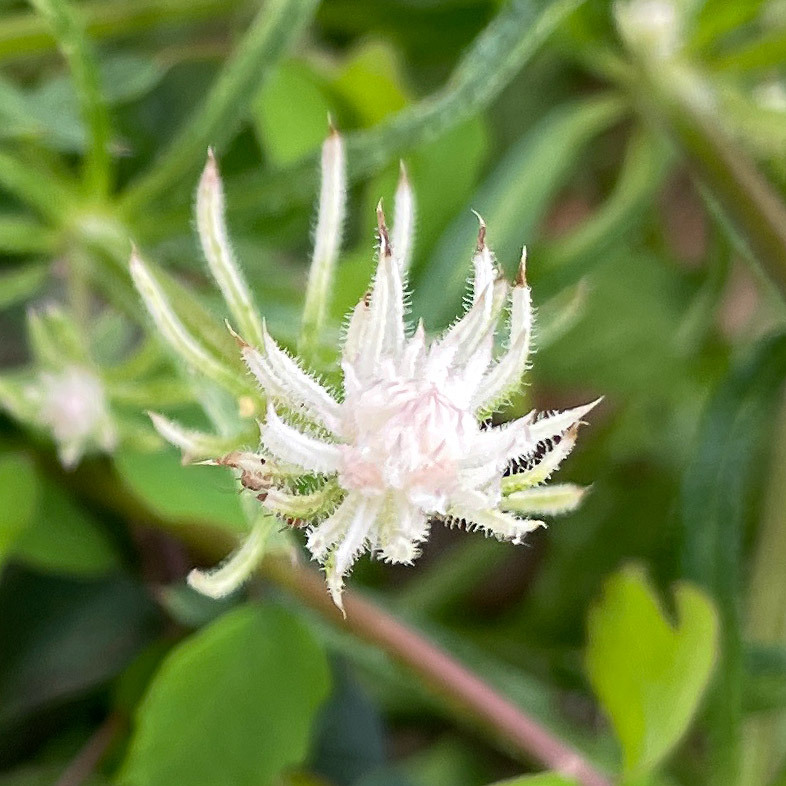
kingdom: Plantae
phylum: Tracheophyta
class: Magnoliopsida
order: Gentianales
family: Rubiaceae
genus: Galium
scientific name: Galium aparine
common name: Cleavers
